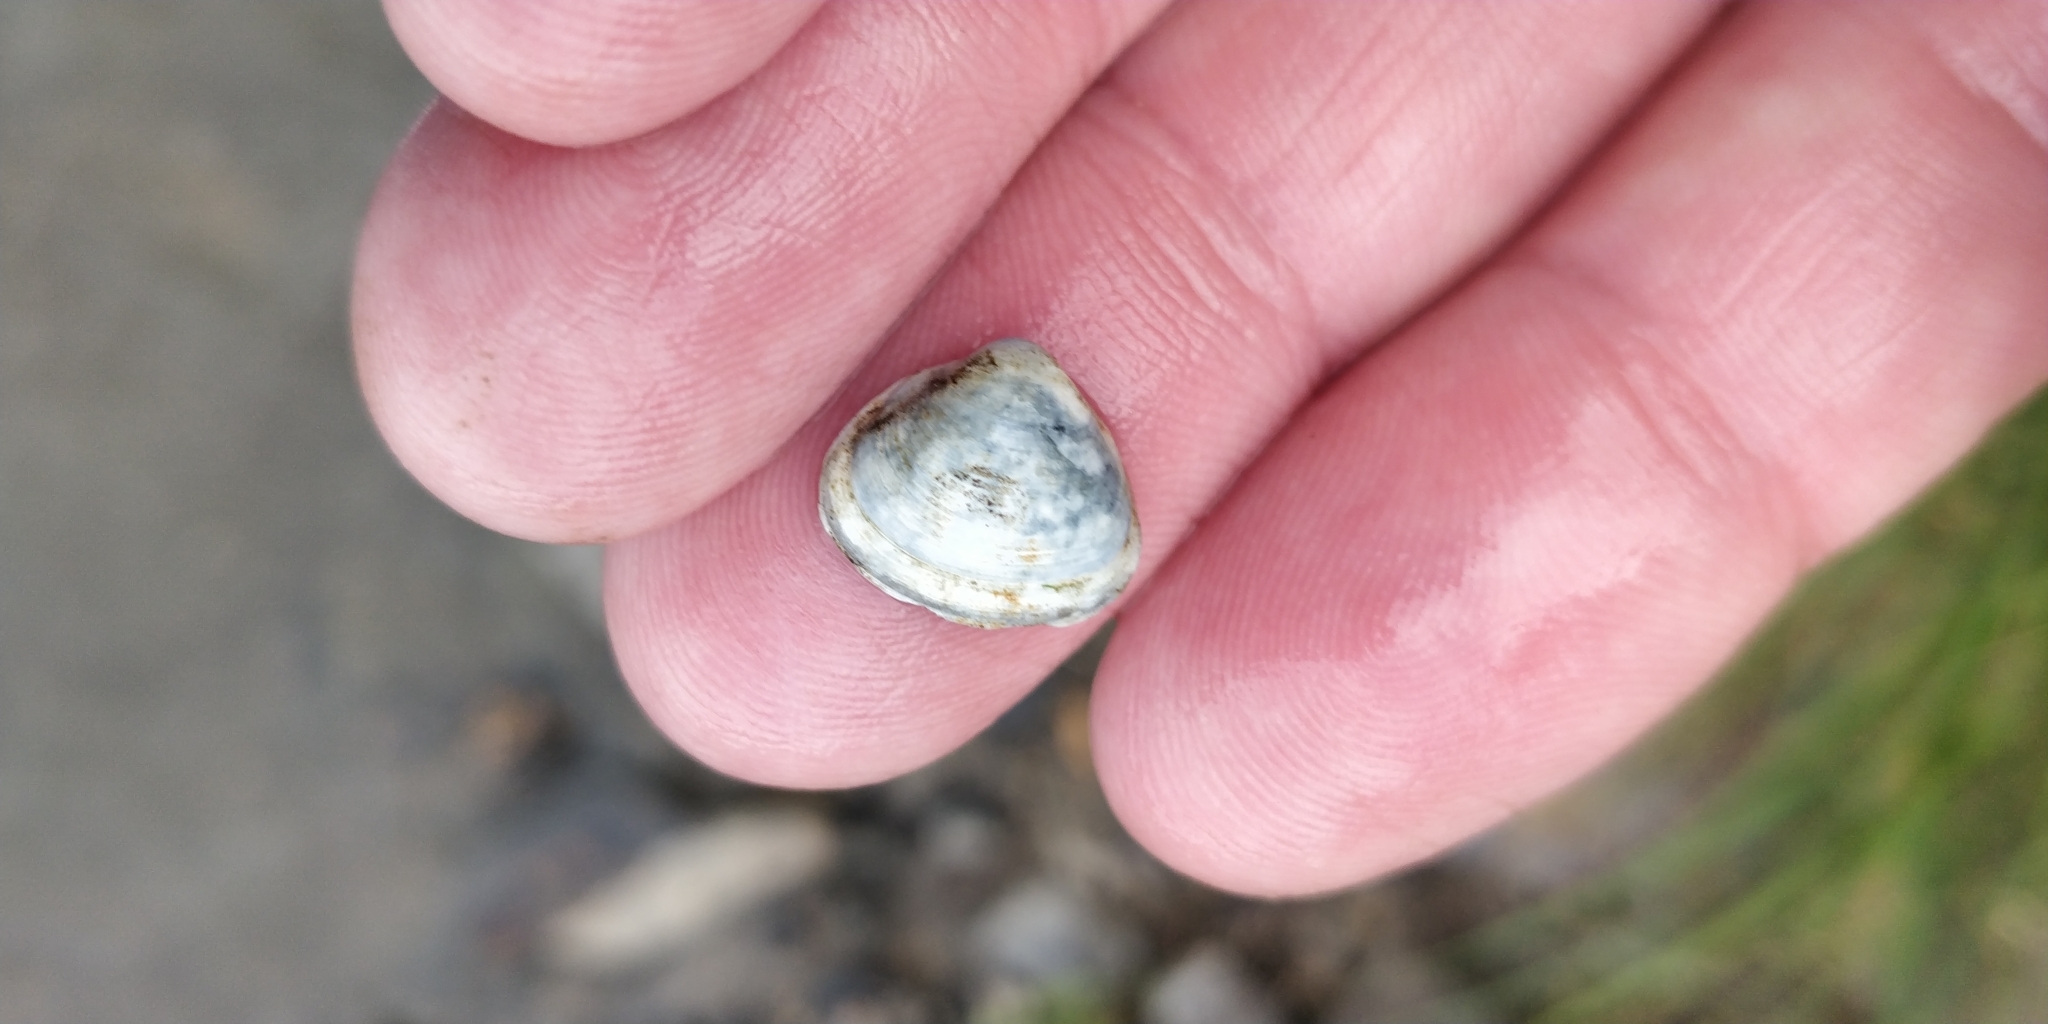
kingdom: Animalia
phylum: Mollusca
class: Bivalvia
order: Sphaeriida
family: Sphaeriidae
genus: Sphaerium
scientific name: Sphaerium striatinum
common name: Striated fingernailclam
